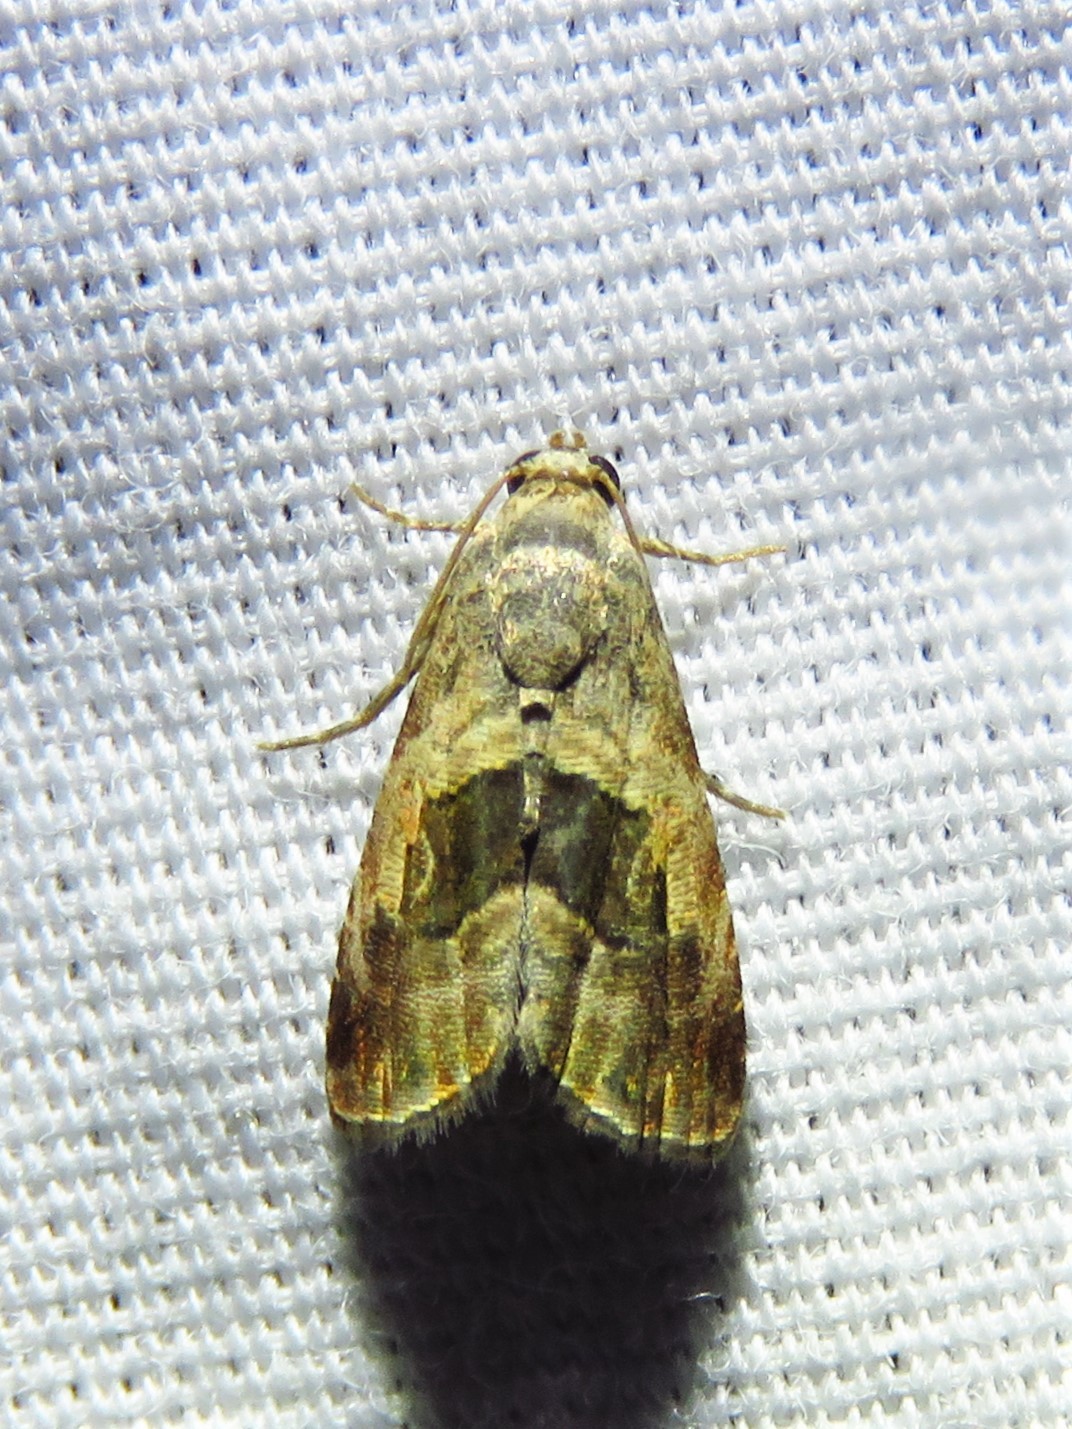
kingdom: Animalia
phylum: Arthropoda
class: Insecta
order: Lepidoptera
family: Noctuidae
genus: Tripudia
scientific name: Tripudia quadrifera
